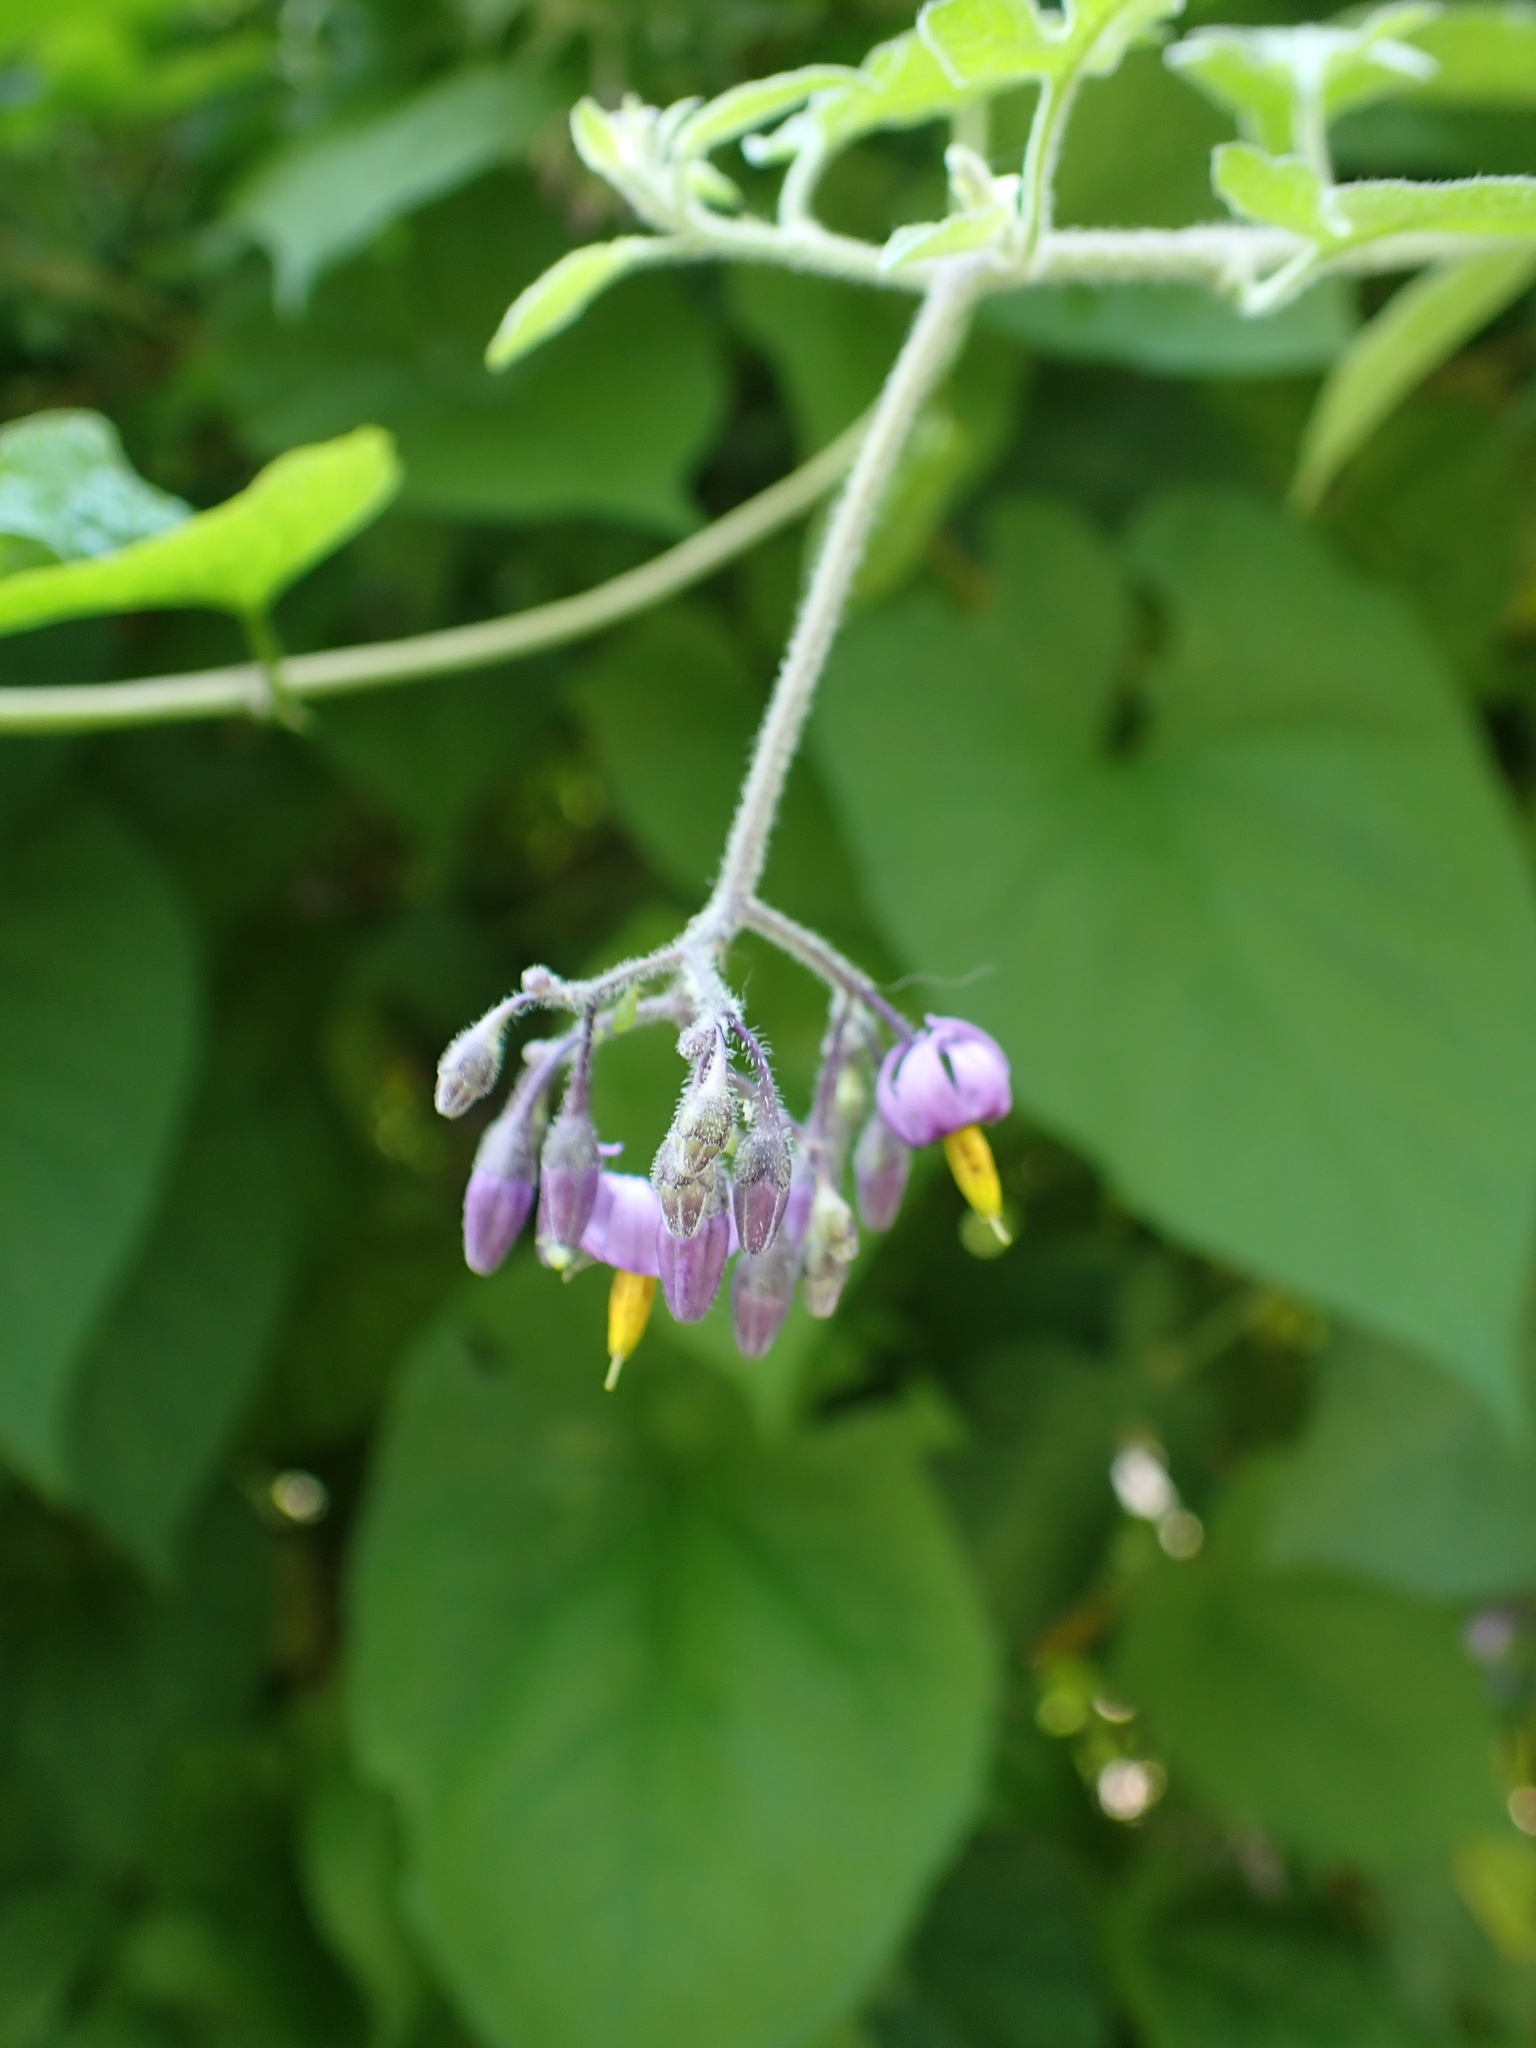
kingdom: Plantae
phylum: Tracheophyta
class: Magnoliopsida
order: Solanales
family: Solanaceae
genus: Solanum
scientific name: Solanum dulcamara
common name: Climbing nightshade
